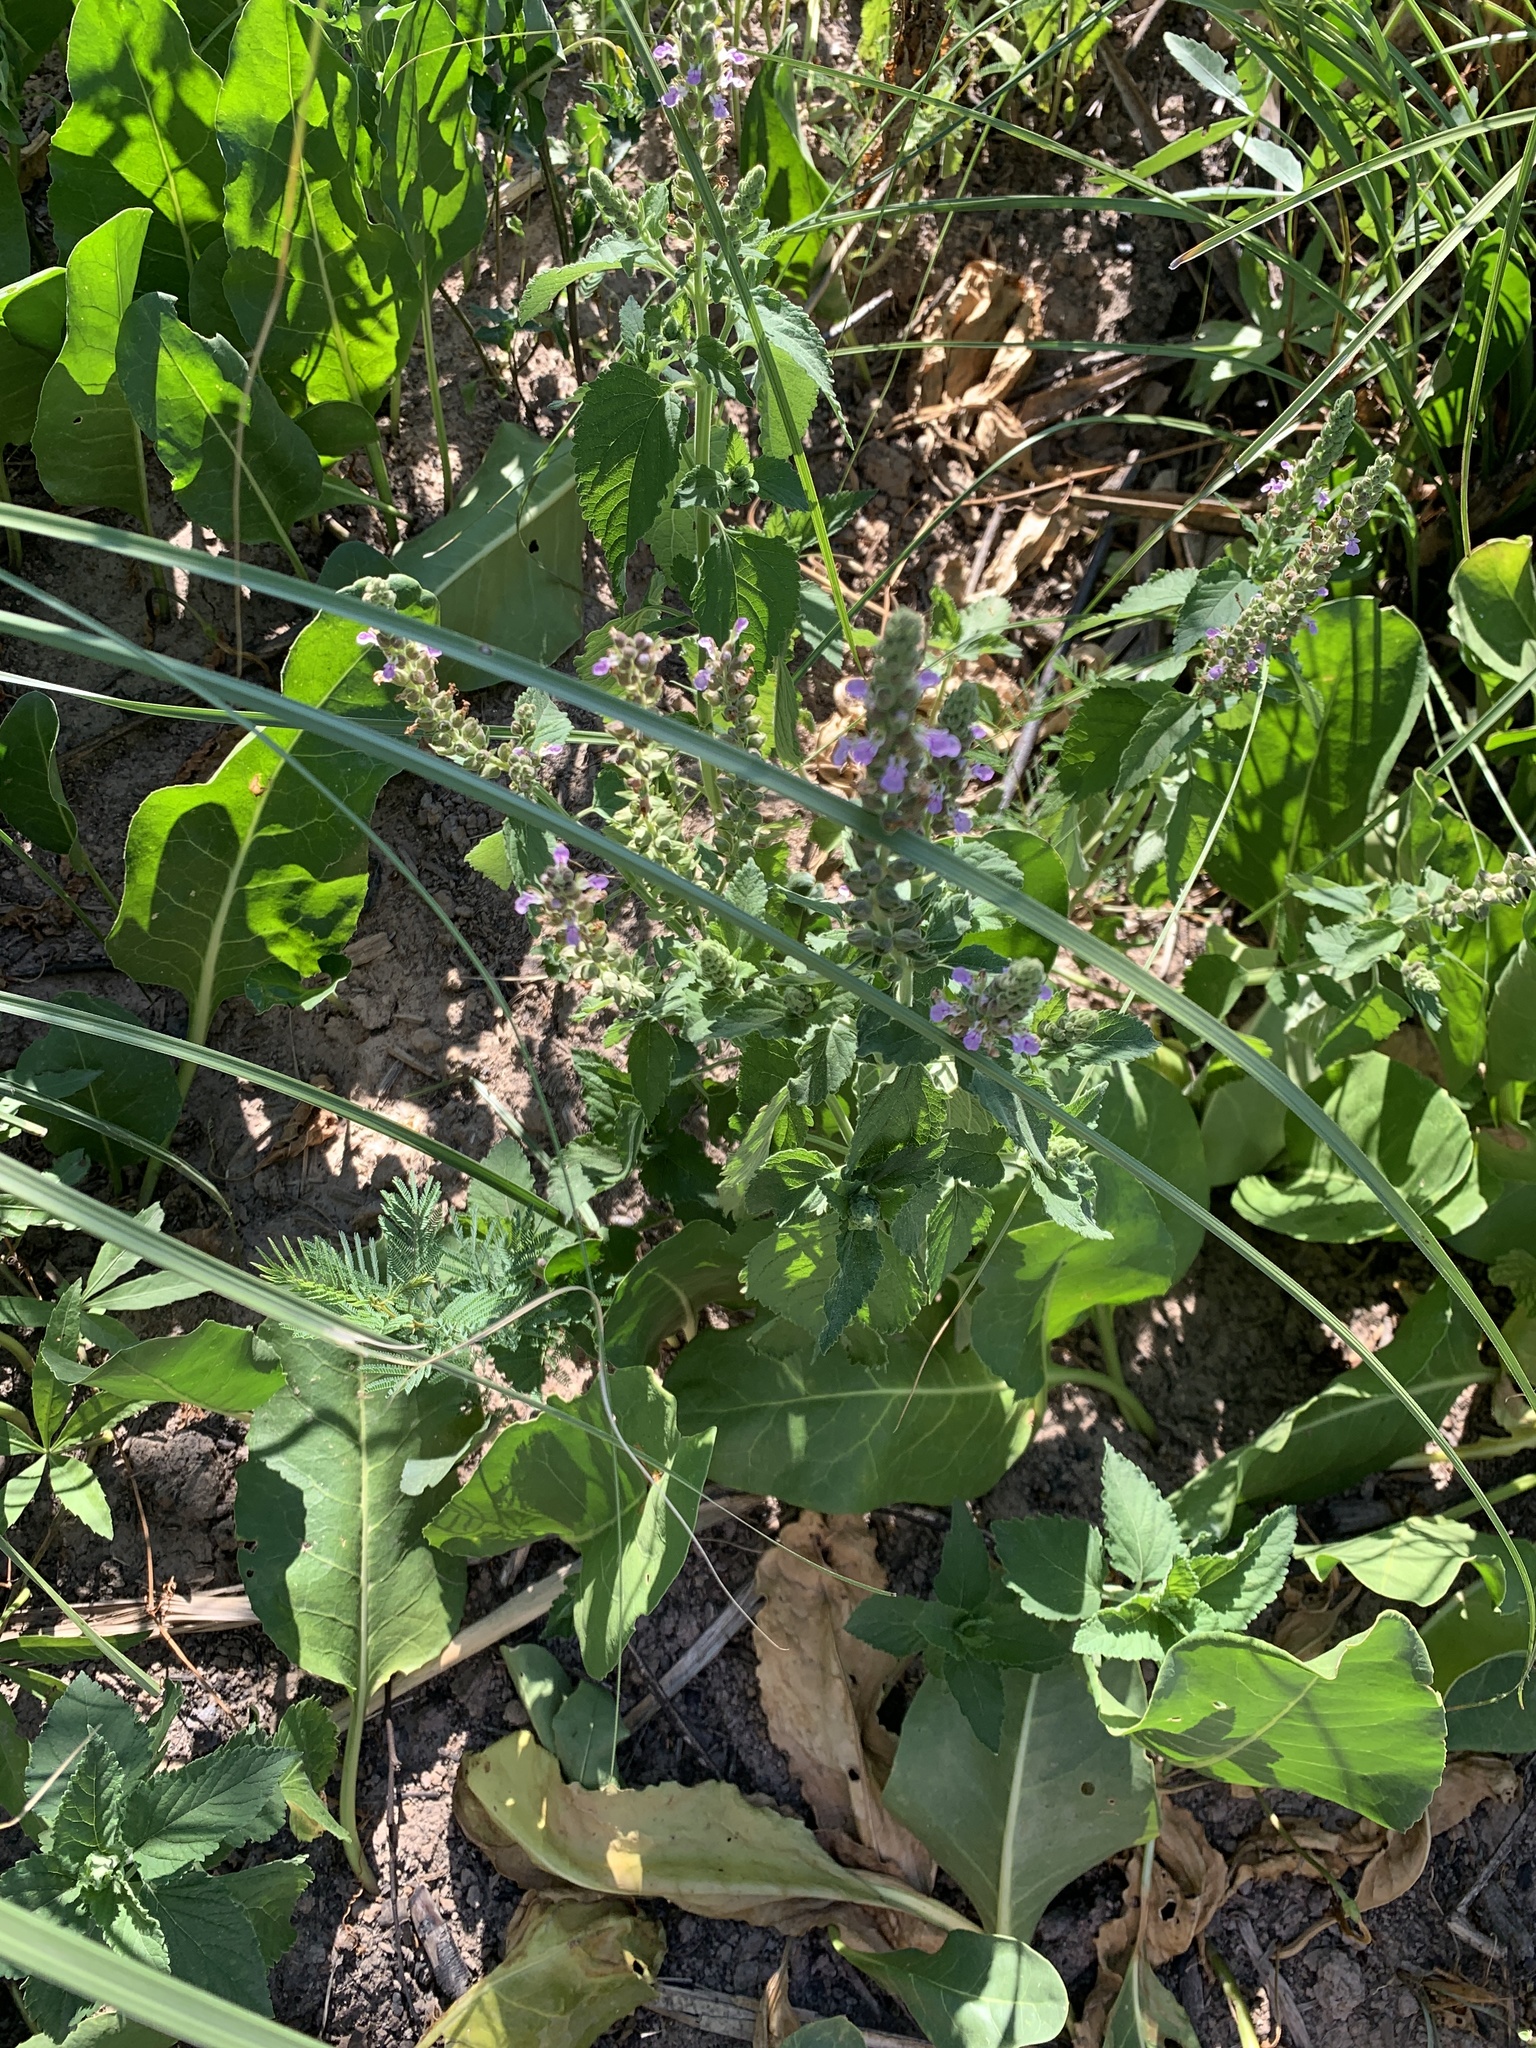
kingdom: Plantae
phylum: Tracheophyta
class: Magnoliopsida
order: Lamiales
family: Lamiaceae
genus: Teucrium
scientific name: Teucrium vesicarium
